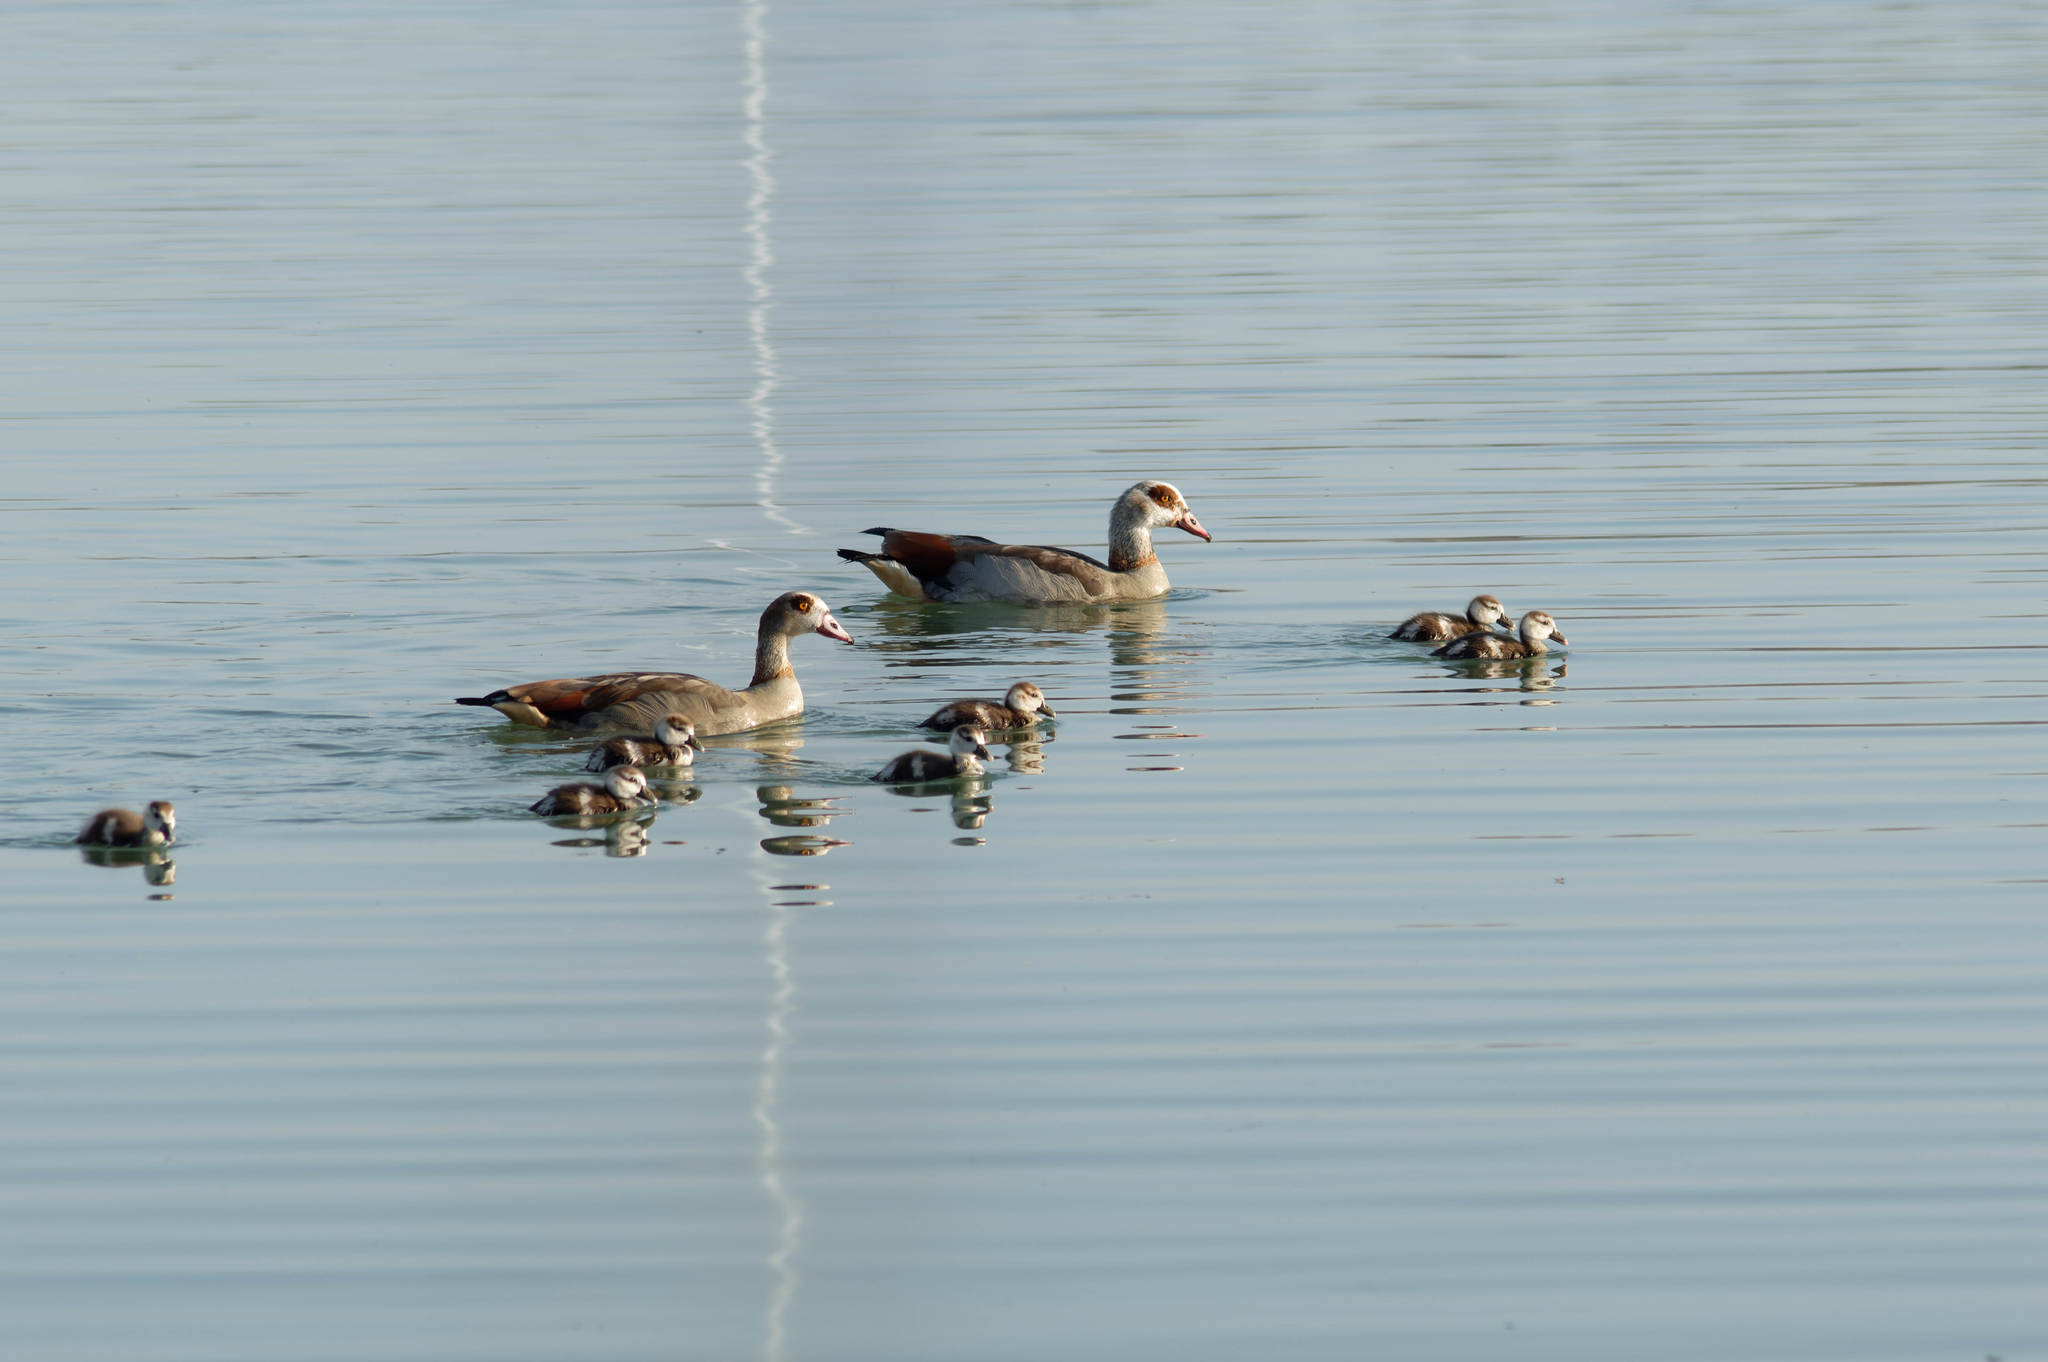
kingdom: Animalia
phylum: Chordata
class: Aves
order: Anseriformes
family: Anatidae
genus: Alopochen
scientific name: Alopochen aegyptiaca
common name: Egyptian goose
